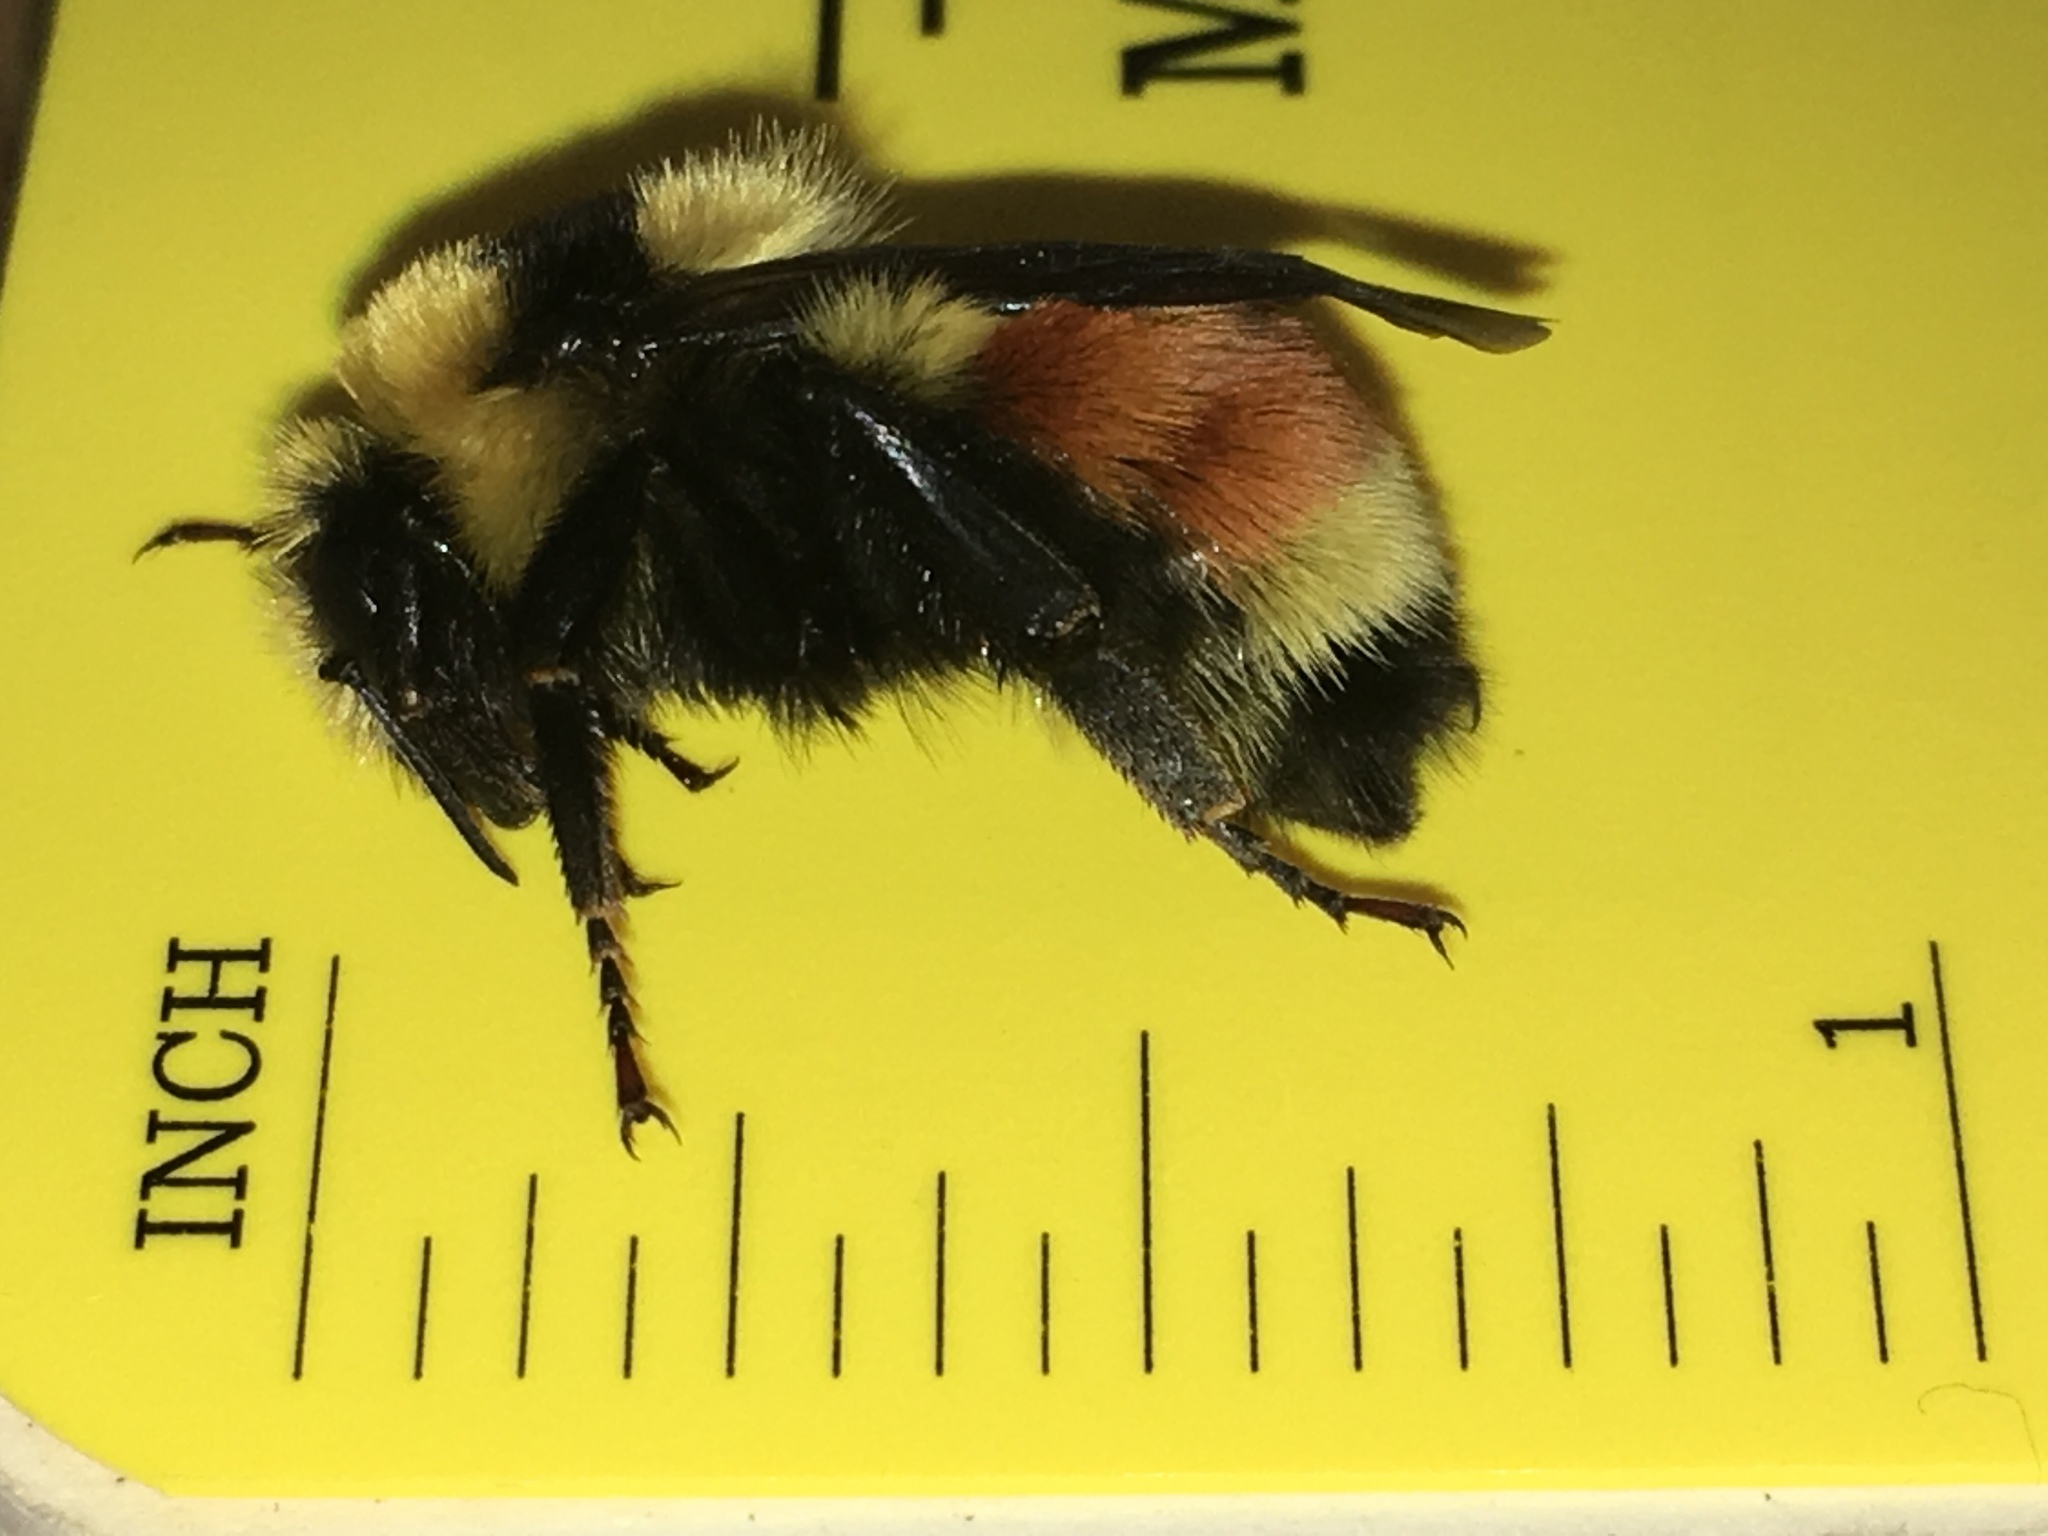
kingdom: Animalia
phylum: Arthropoda
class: Insecta
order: Hymenoptera
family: Apidae
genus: Bombus
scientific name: Bombus huntii
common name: Hunt bumble bee
